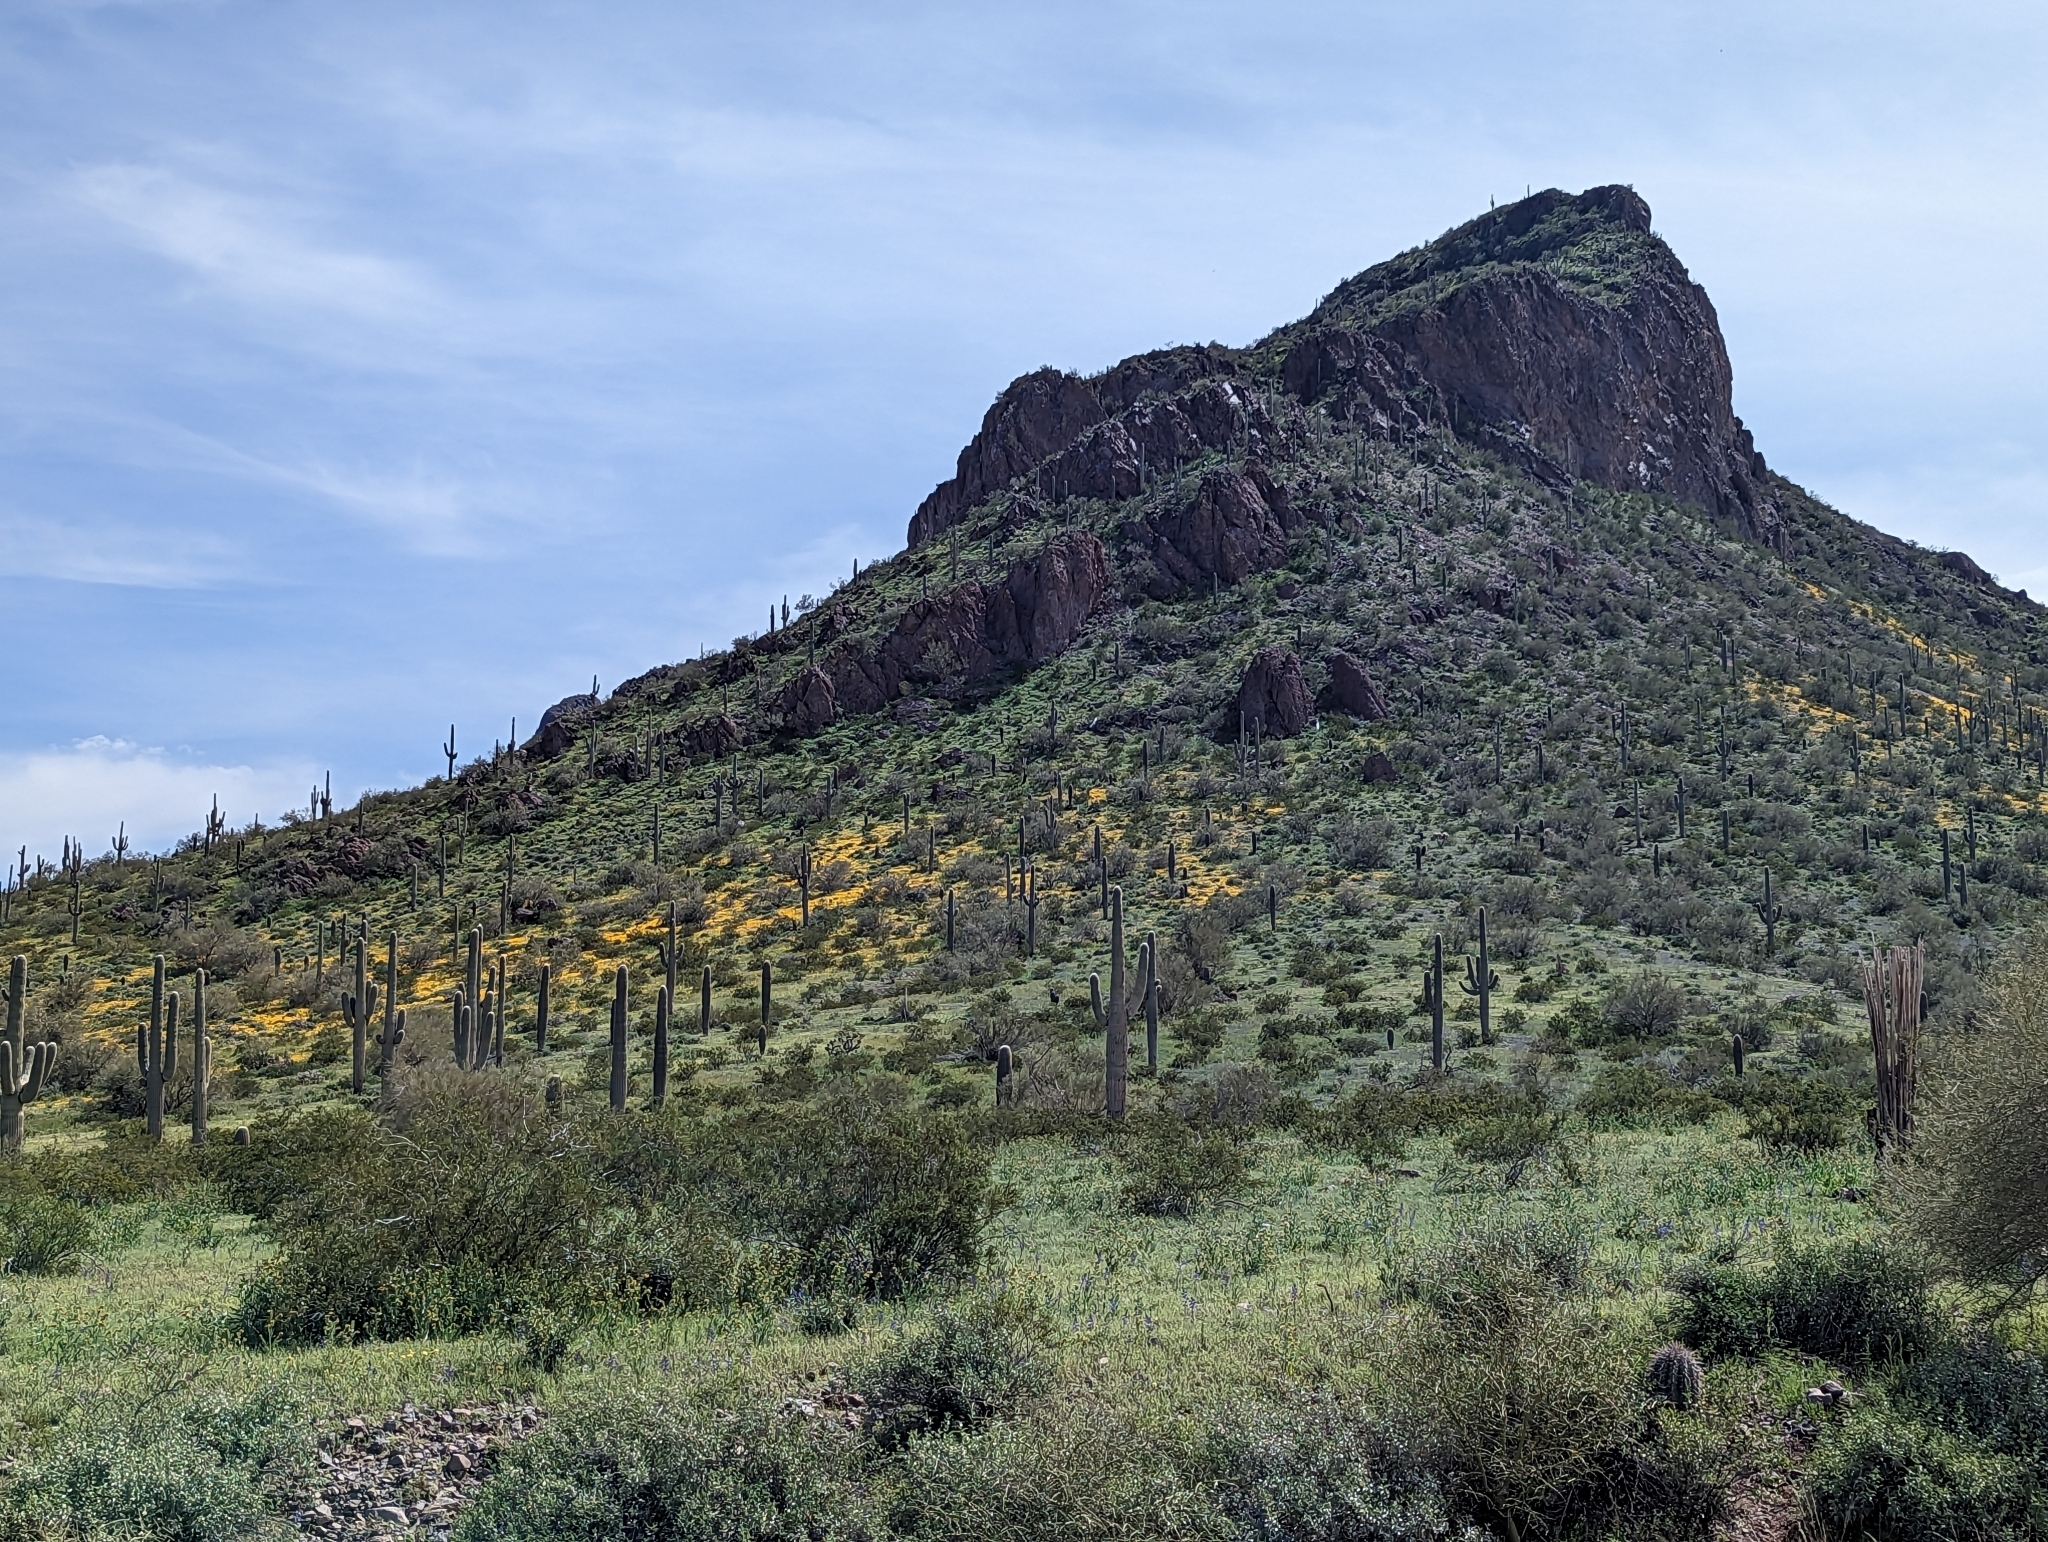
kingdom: Plantae
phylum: Tracheophyta
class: Magnoliopsida
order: Caryophyllales
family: Cactaceae
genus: Carnegiea
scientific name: Carnegiea gigantea
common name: Saguaro
